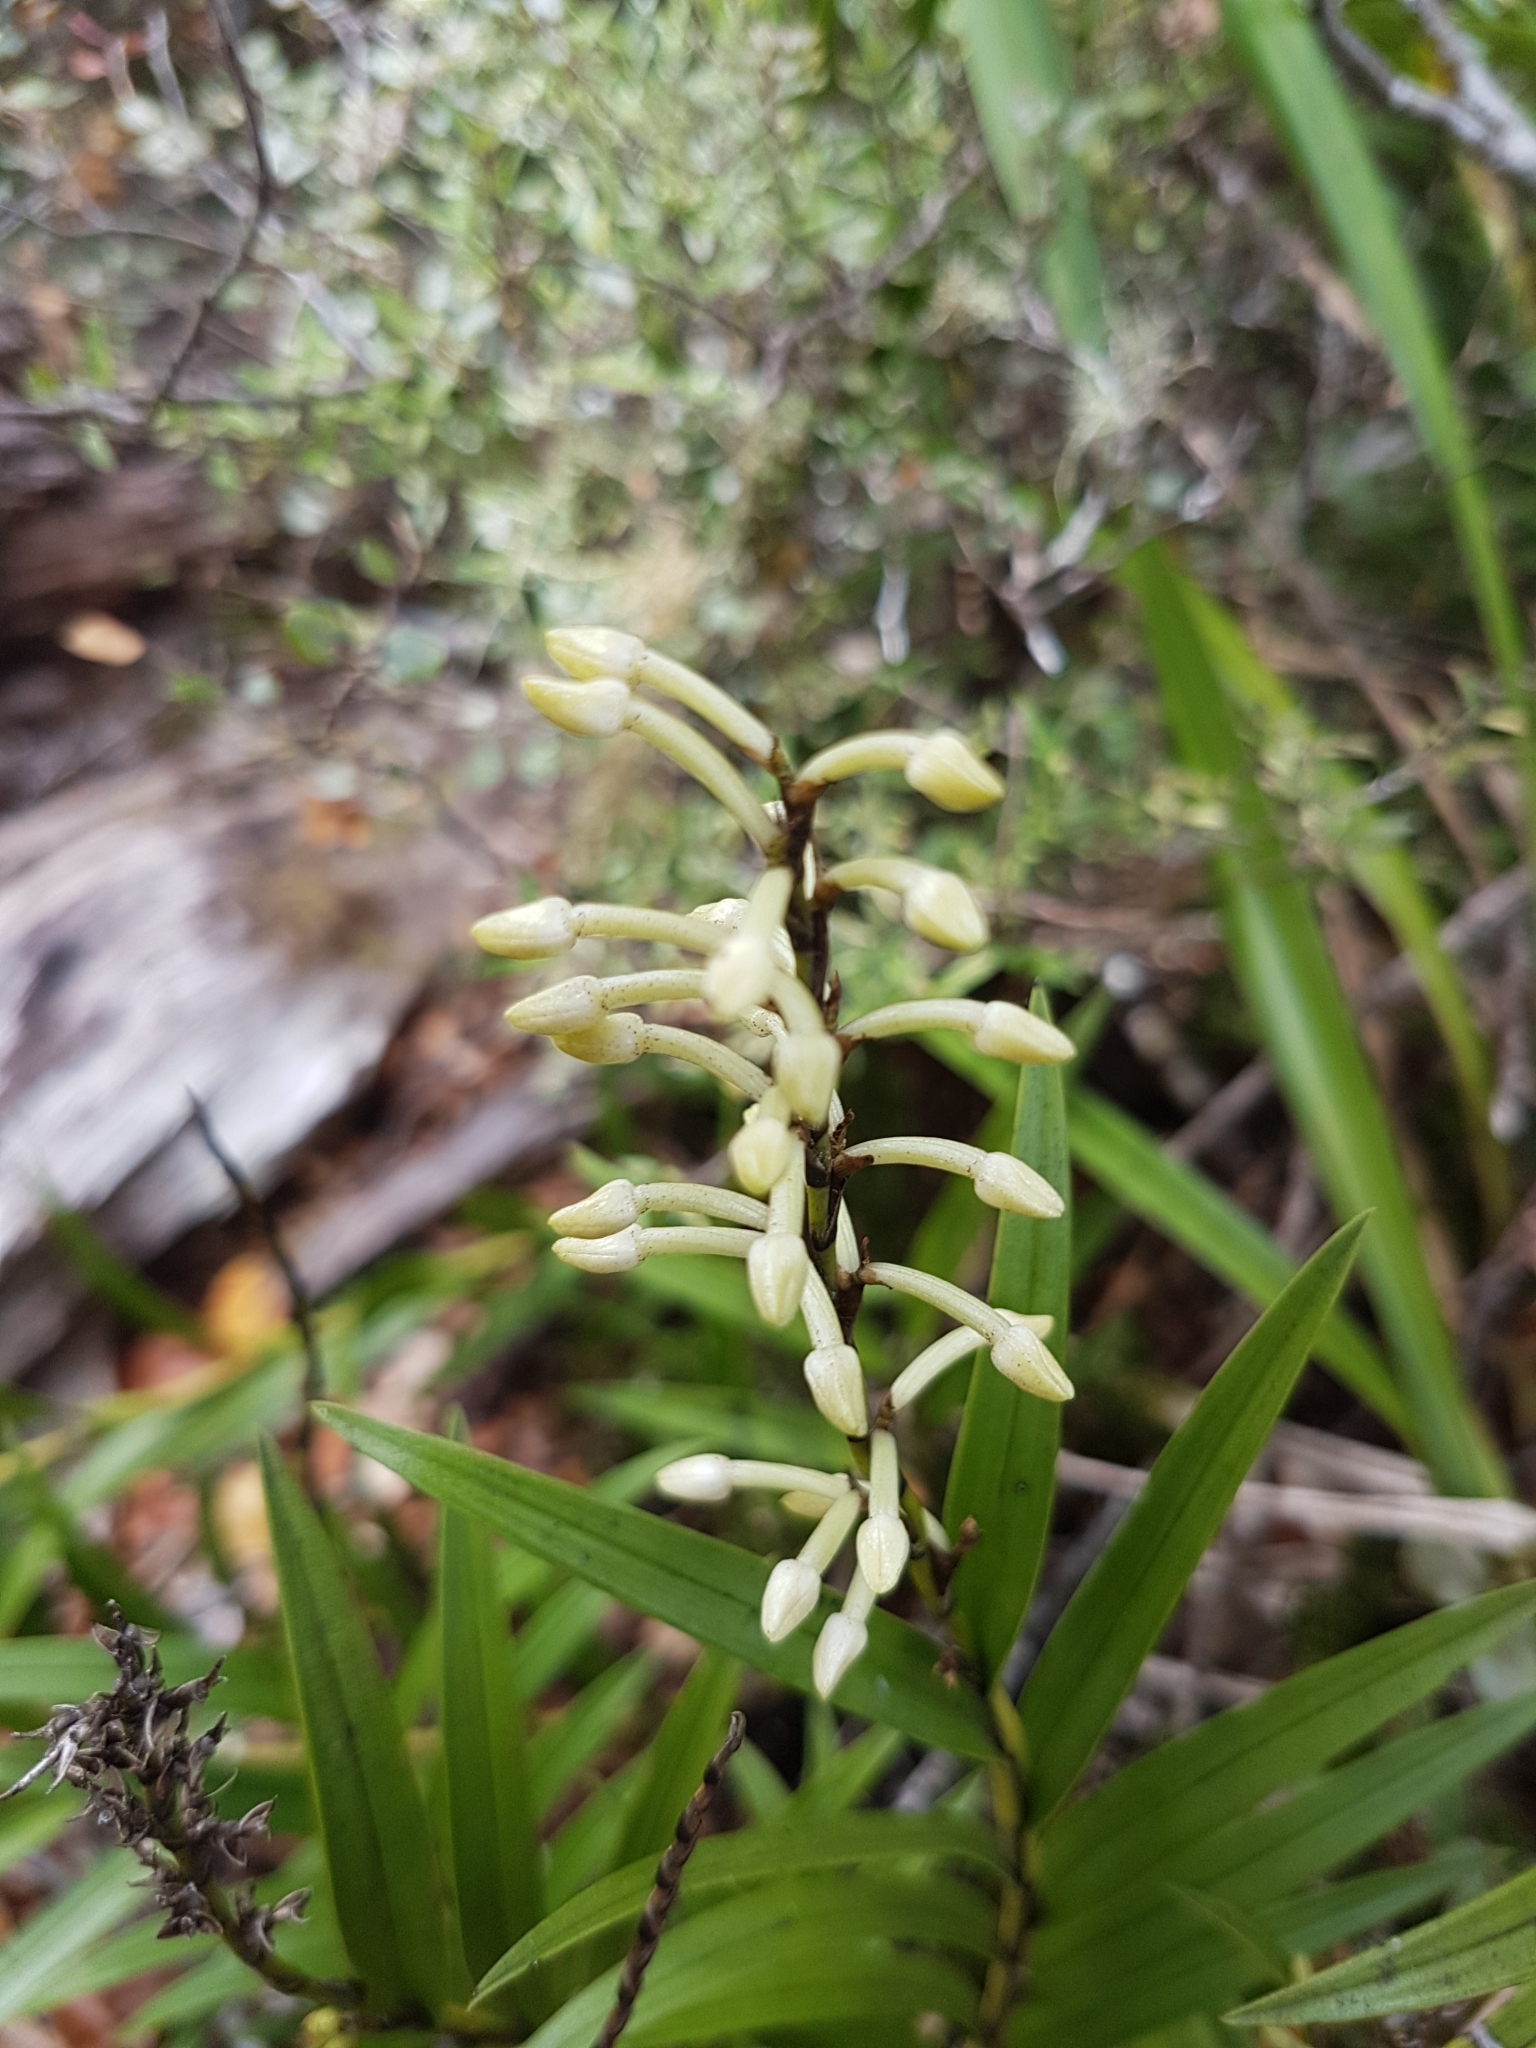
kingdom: Plantae
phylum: Tracheophyta
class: Liliopsida
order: Asparagales
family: Orchidaceae
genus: Earina
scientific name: Earina autumnalis
